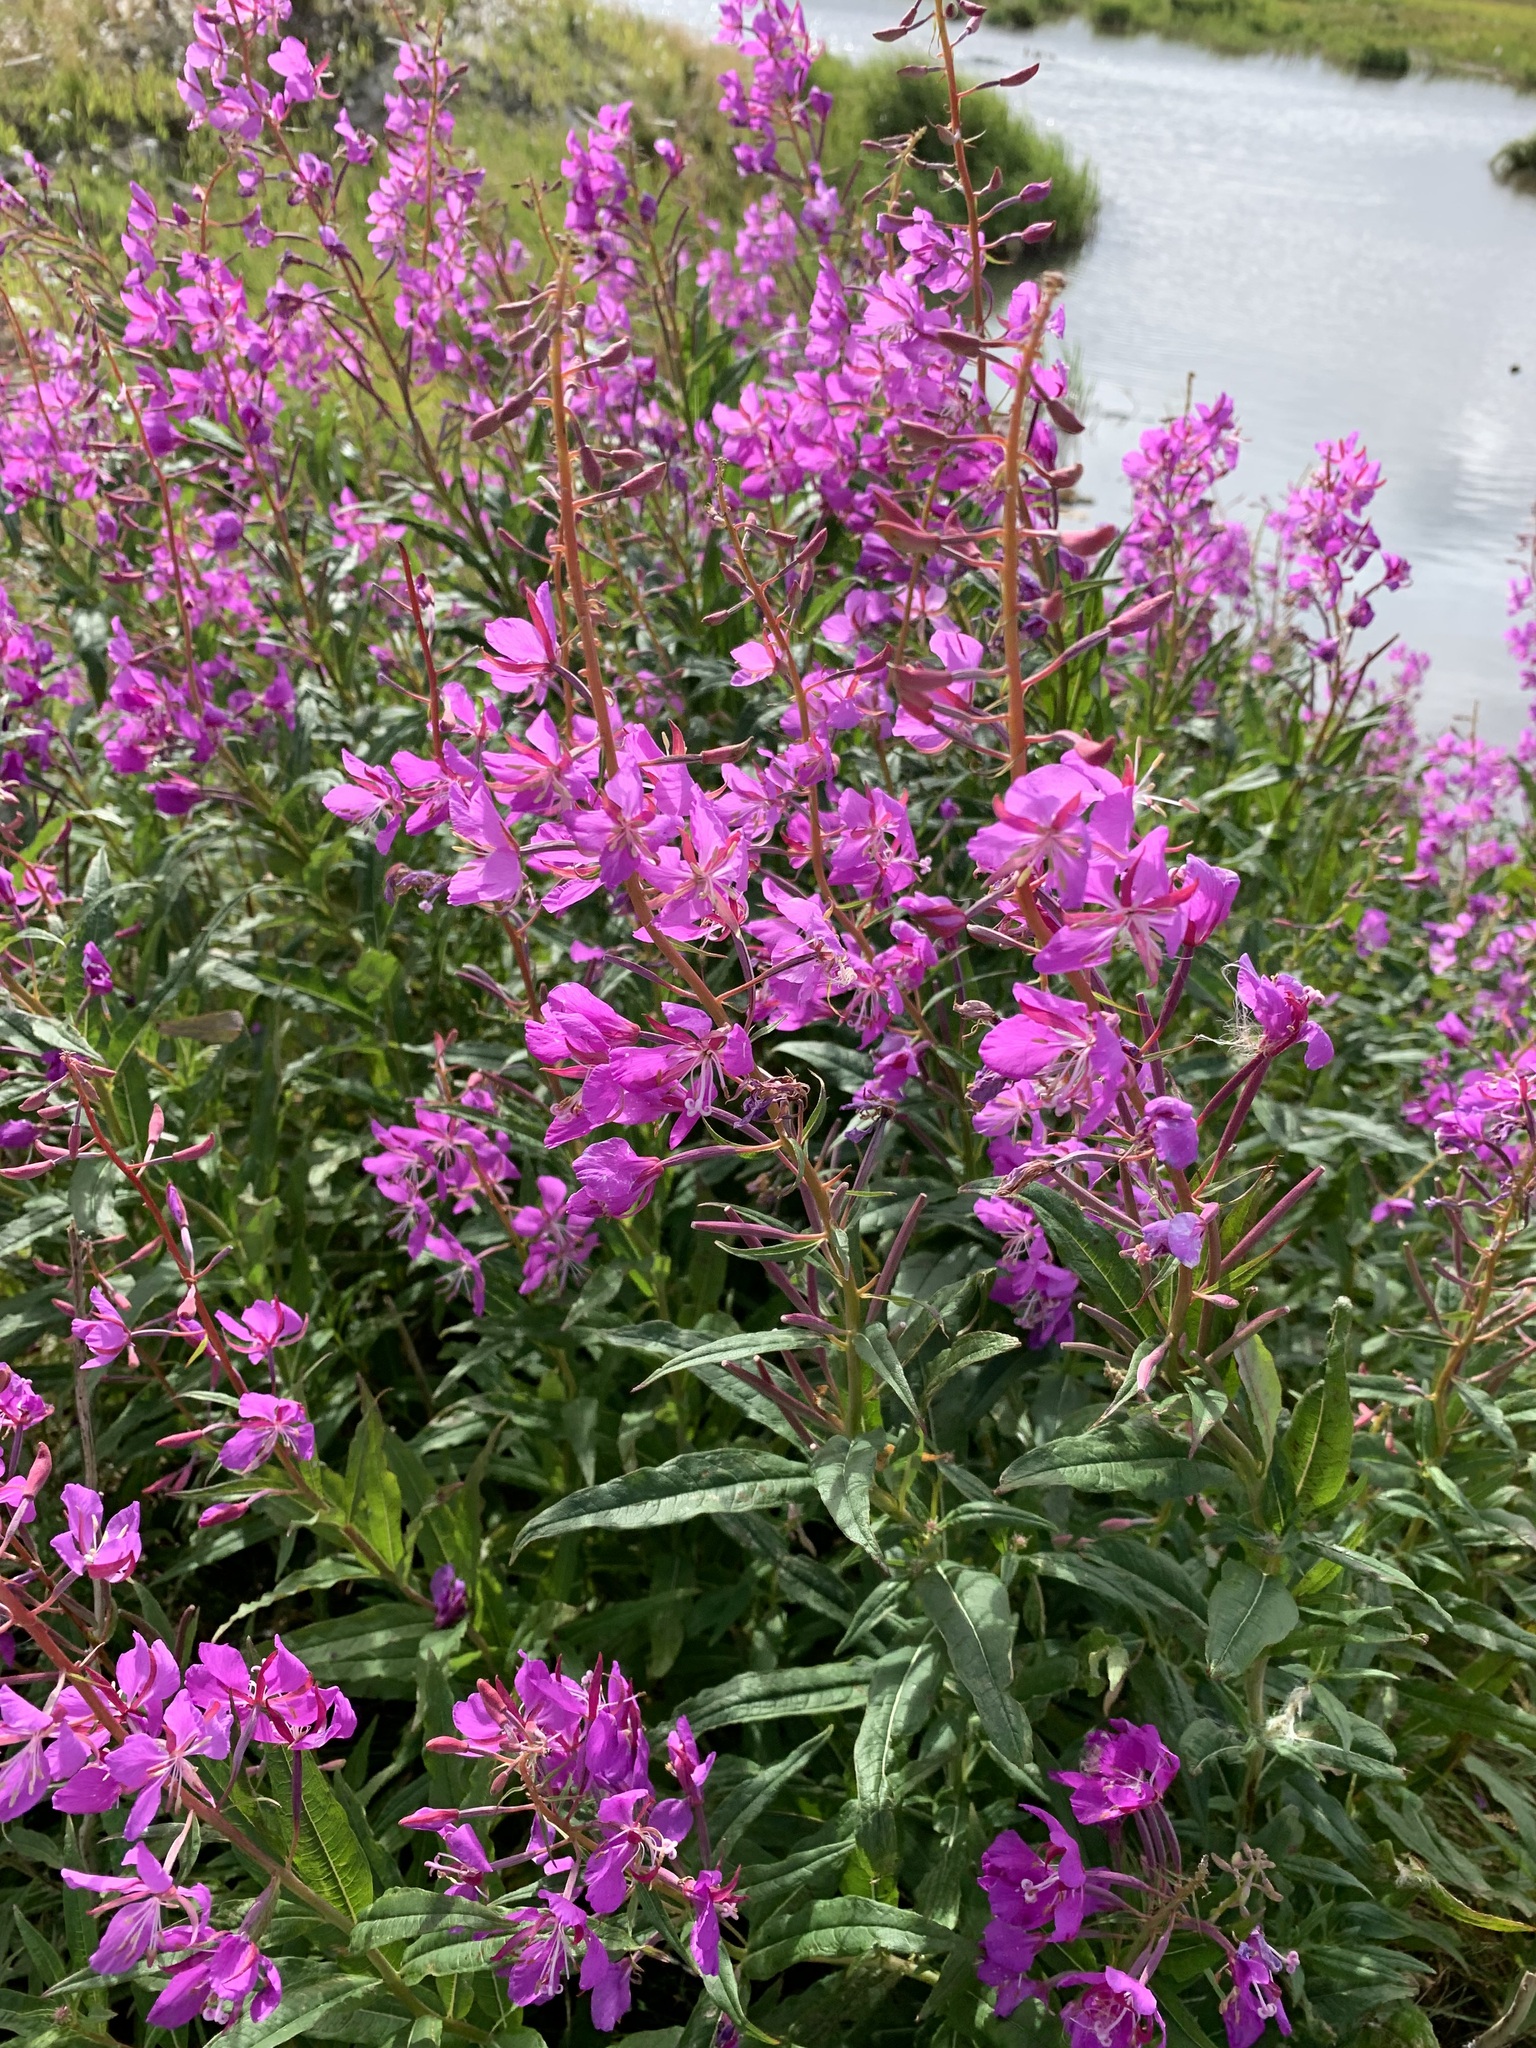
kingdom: Plantae
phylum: Tracheophyta
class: Magnoliopsida
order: Myrtales
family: Onagraceae
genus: Chamaenerion
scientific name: Chamaenerion angustifolium
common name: Fireweed
